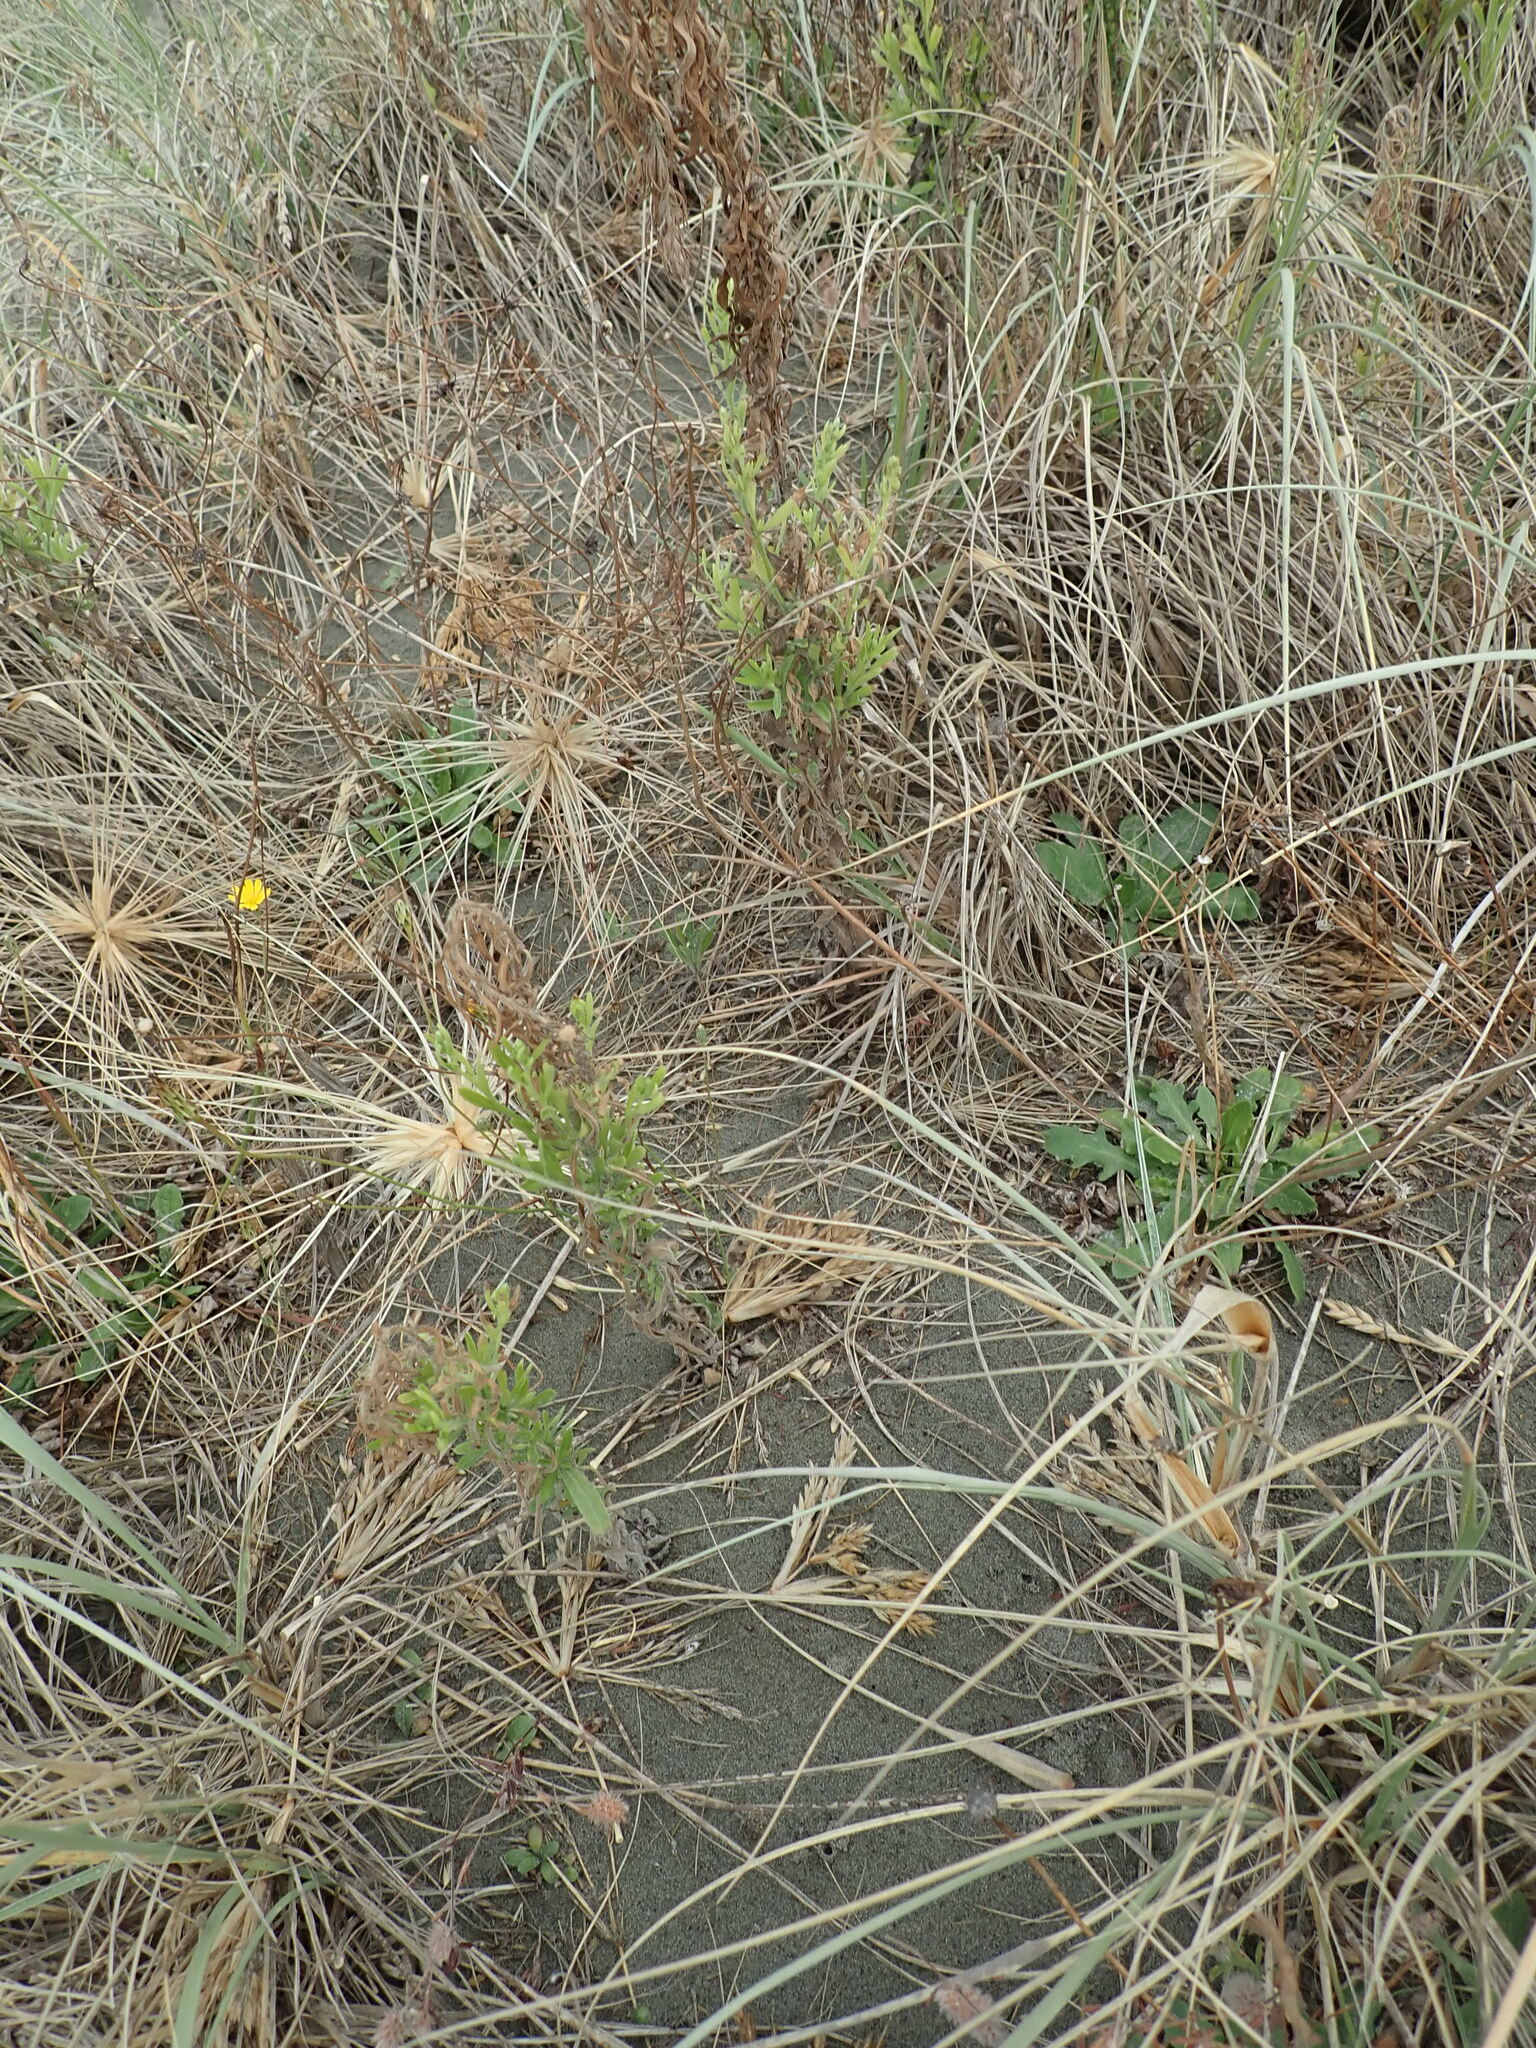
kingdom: Plantae
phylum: Tracheophyta
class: Magnoliopsida
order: Asterales
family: Asteraceae
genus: Erigeron
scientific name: Erigeron sumatrensis
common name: Daisy
